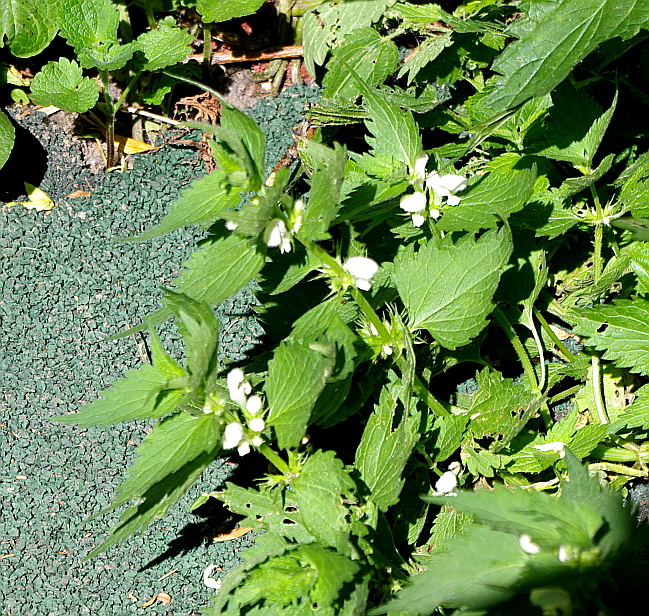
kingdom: Plantae
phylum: Tracheophyta
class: Magnoliopsida
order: Lamiales
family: Lamiaceae
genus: Lamium
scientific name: Lamium album
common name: White dead-nettle
